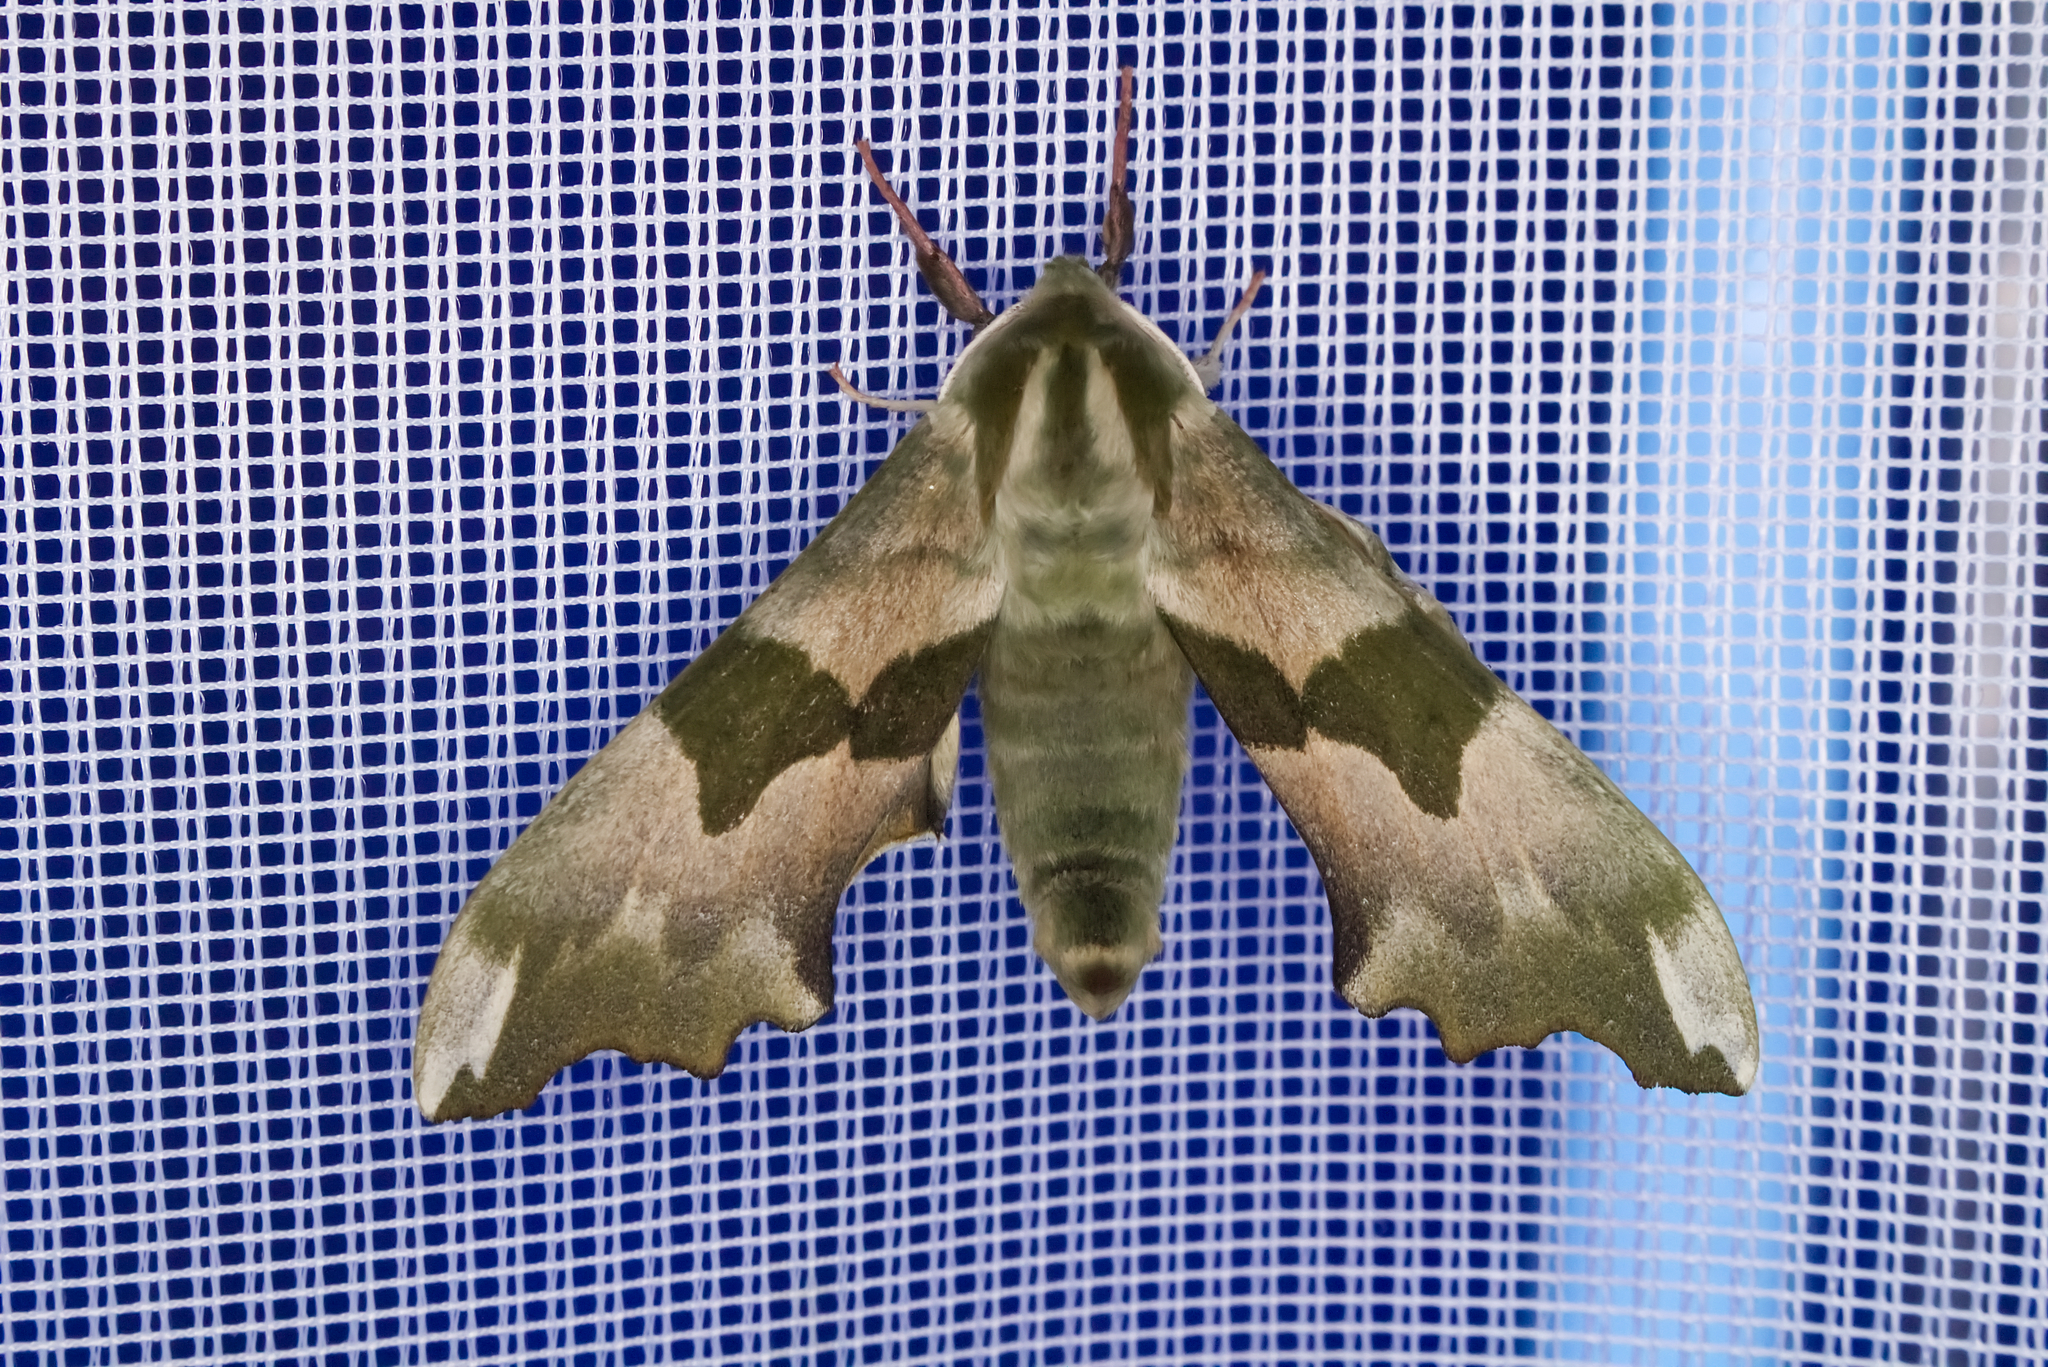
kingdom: Animalia
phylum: Arthropoda
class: Insecta
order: Lepidoptera
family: Sphingidae
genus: Mimas
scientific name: Mimas tiliae
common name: Lime hawk-moth
